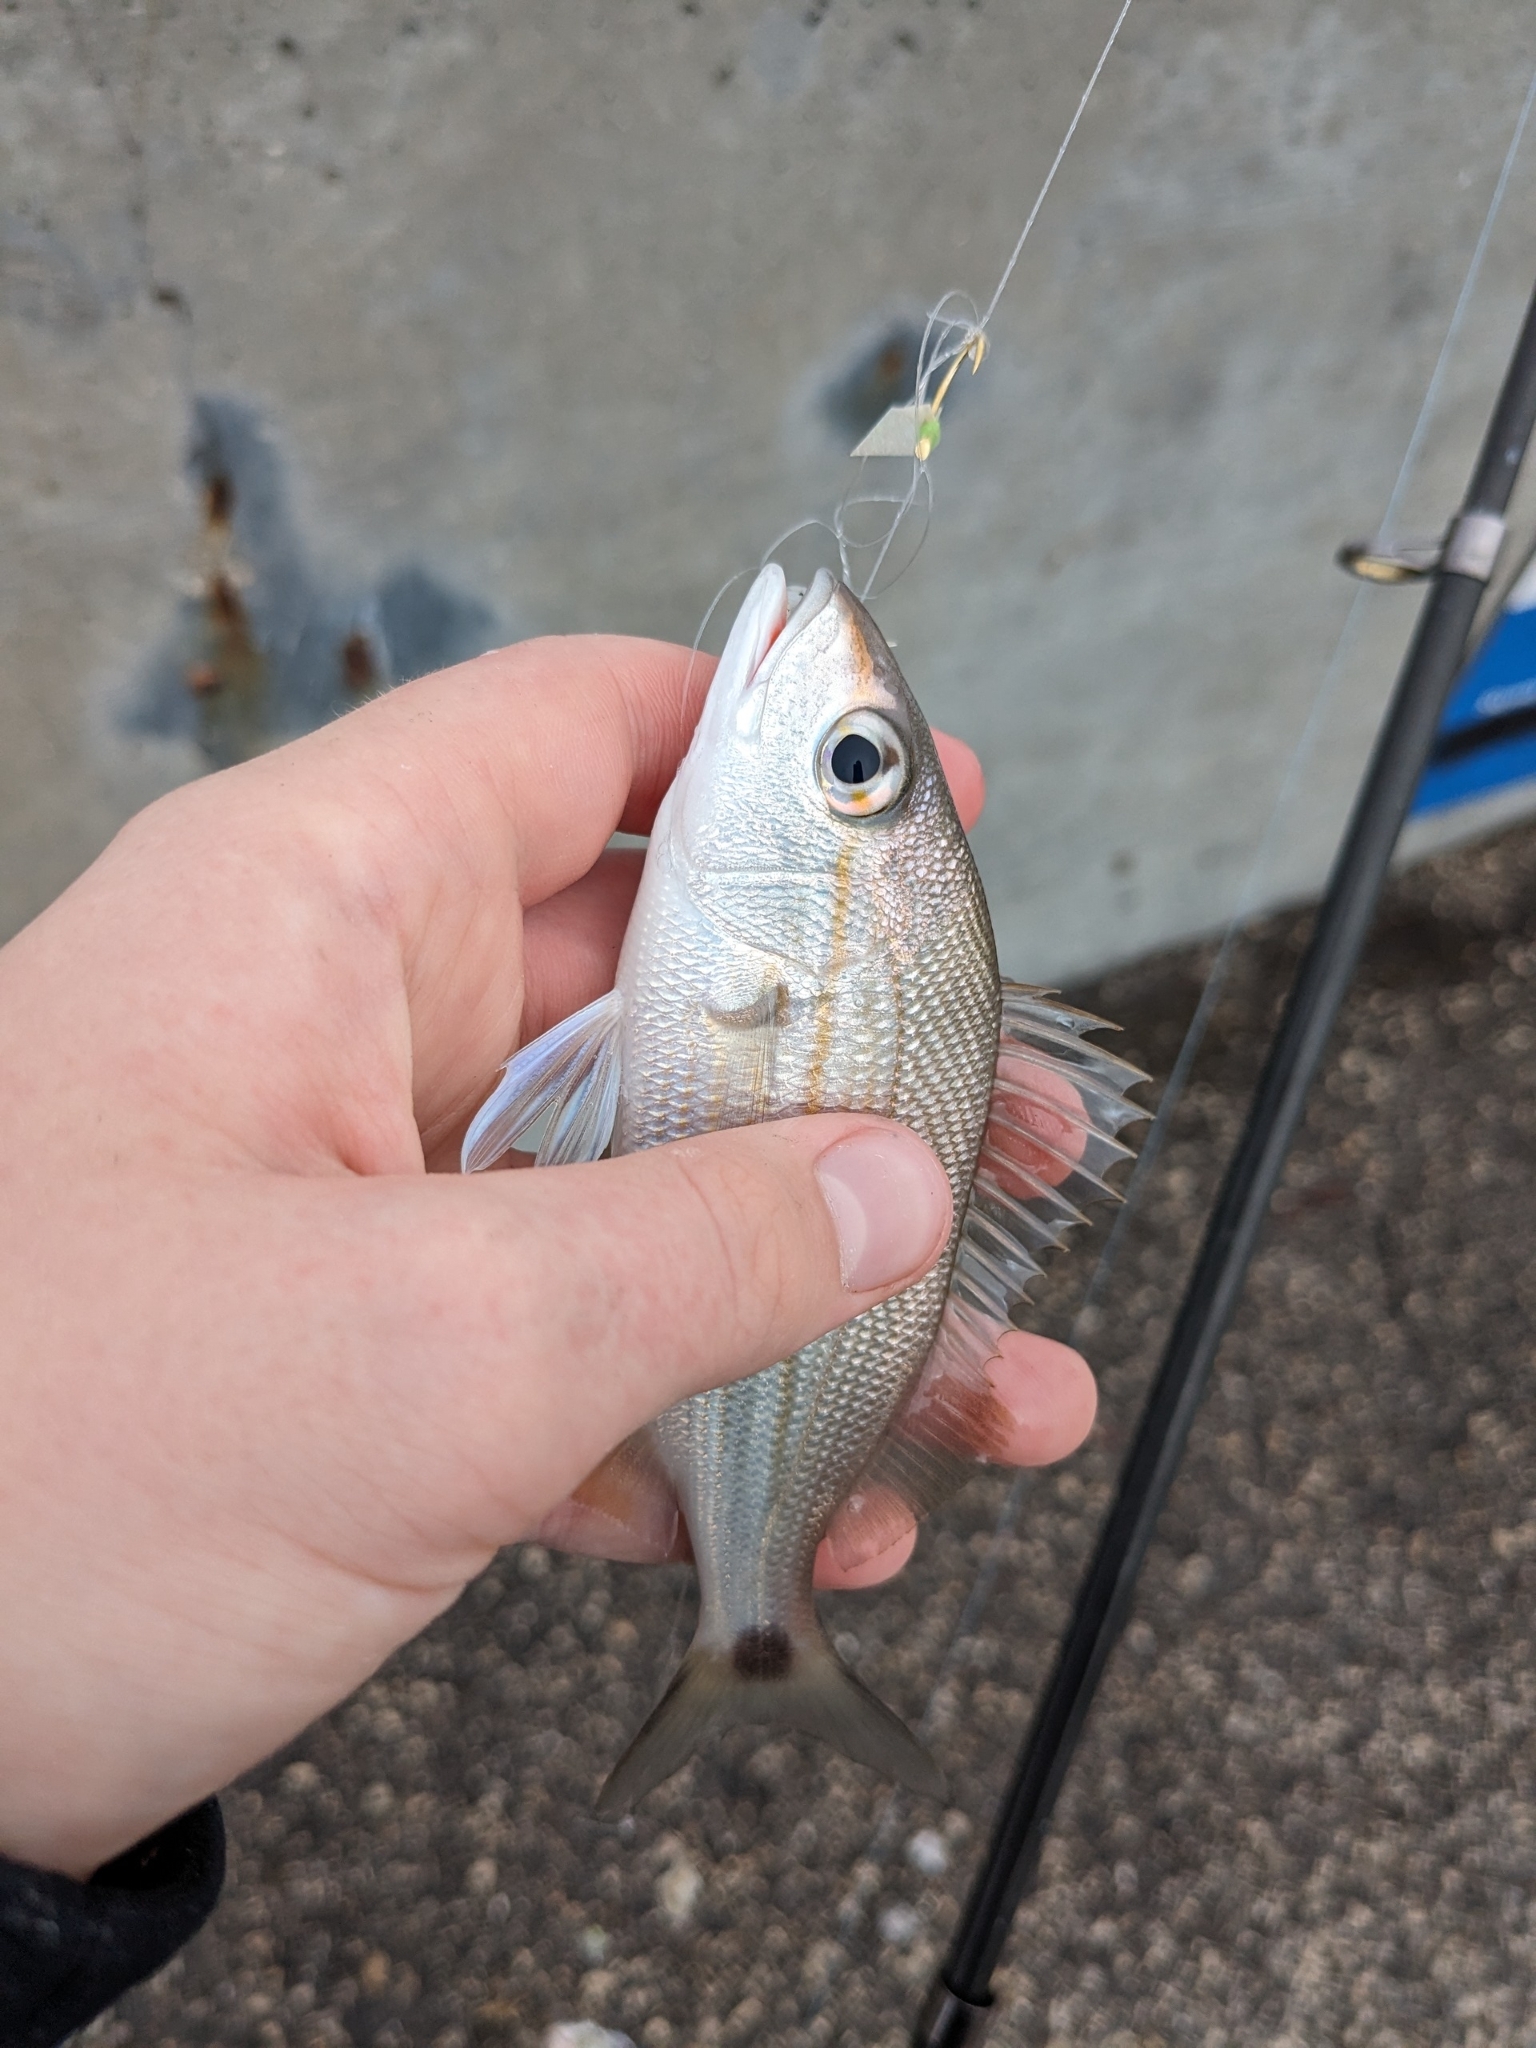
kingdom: Animalia
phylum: Chordata
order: Perciformes
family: Haemulidae
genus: Haemulon
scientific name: Haemulon aurolineatum
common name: Tomtate
